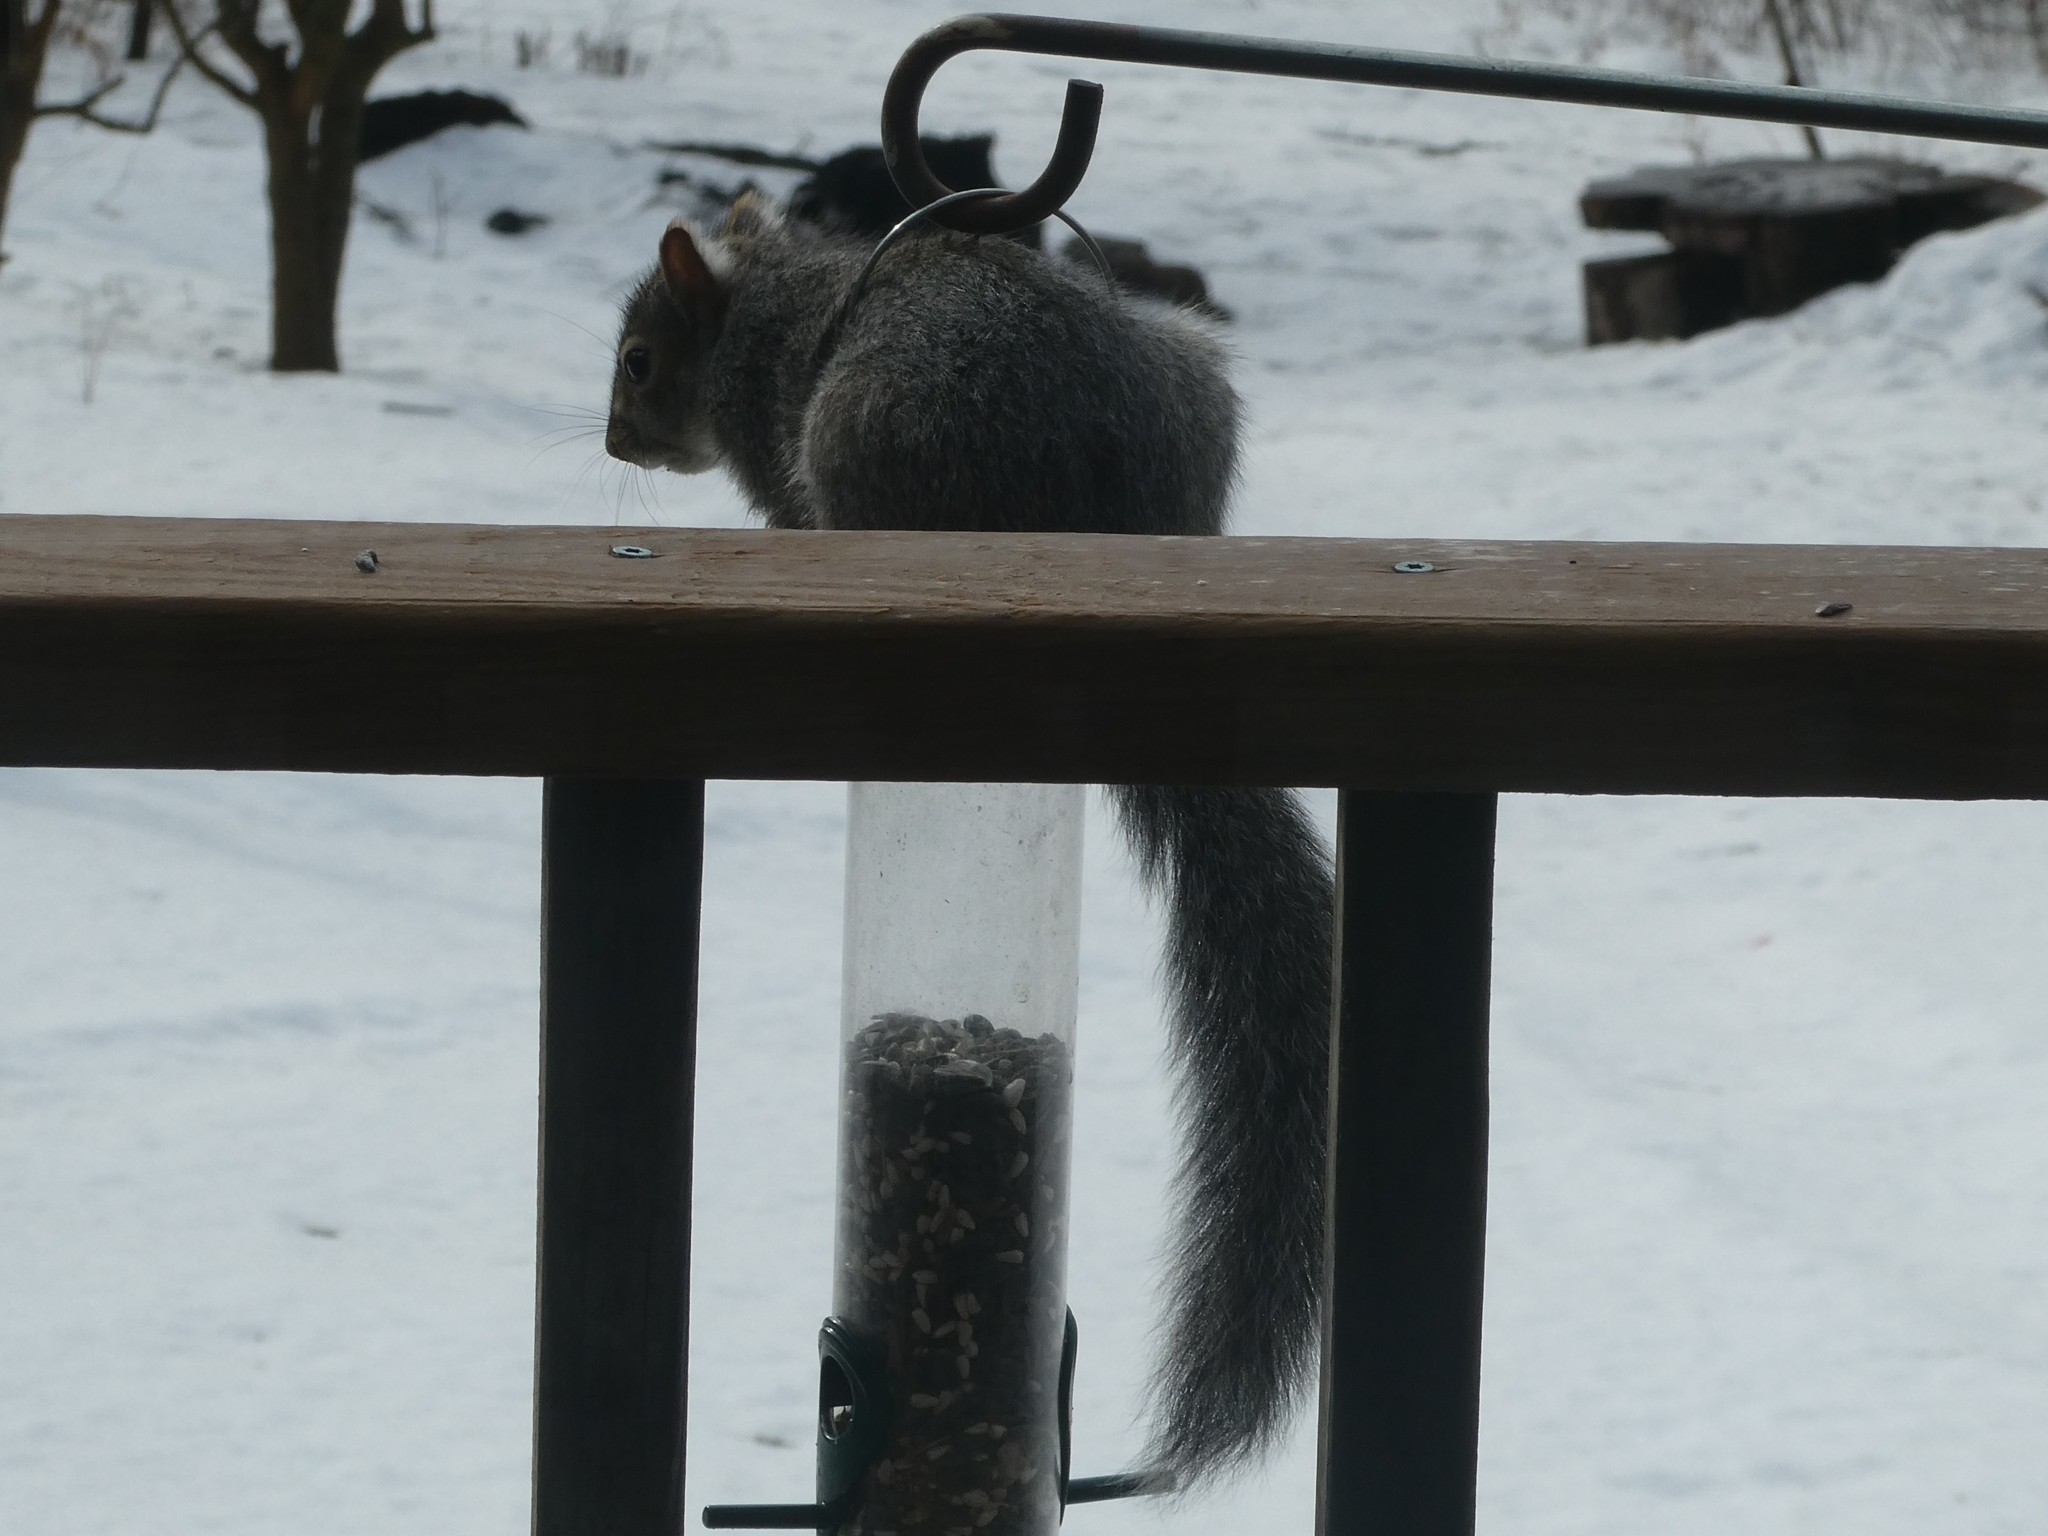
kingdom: Animalia
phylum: Chordata
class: Mammalia
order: Rodentia
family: Sciuridae
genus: Sciurus
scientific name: Sciurus carolinensis
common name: Eastern gray squirrel
